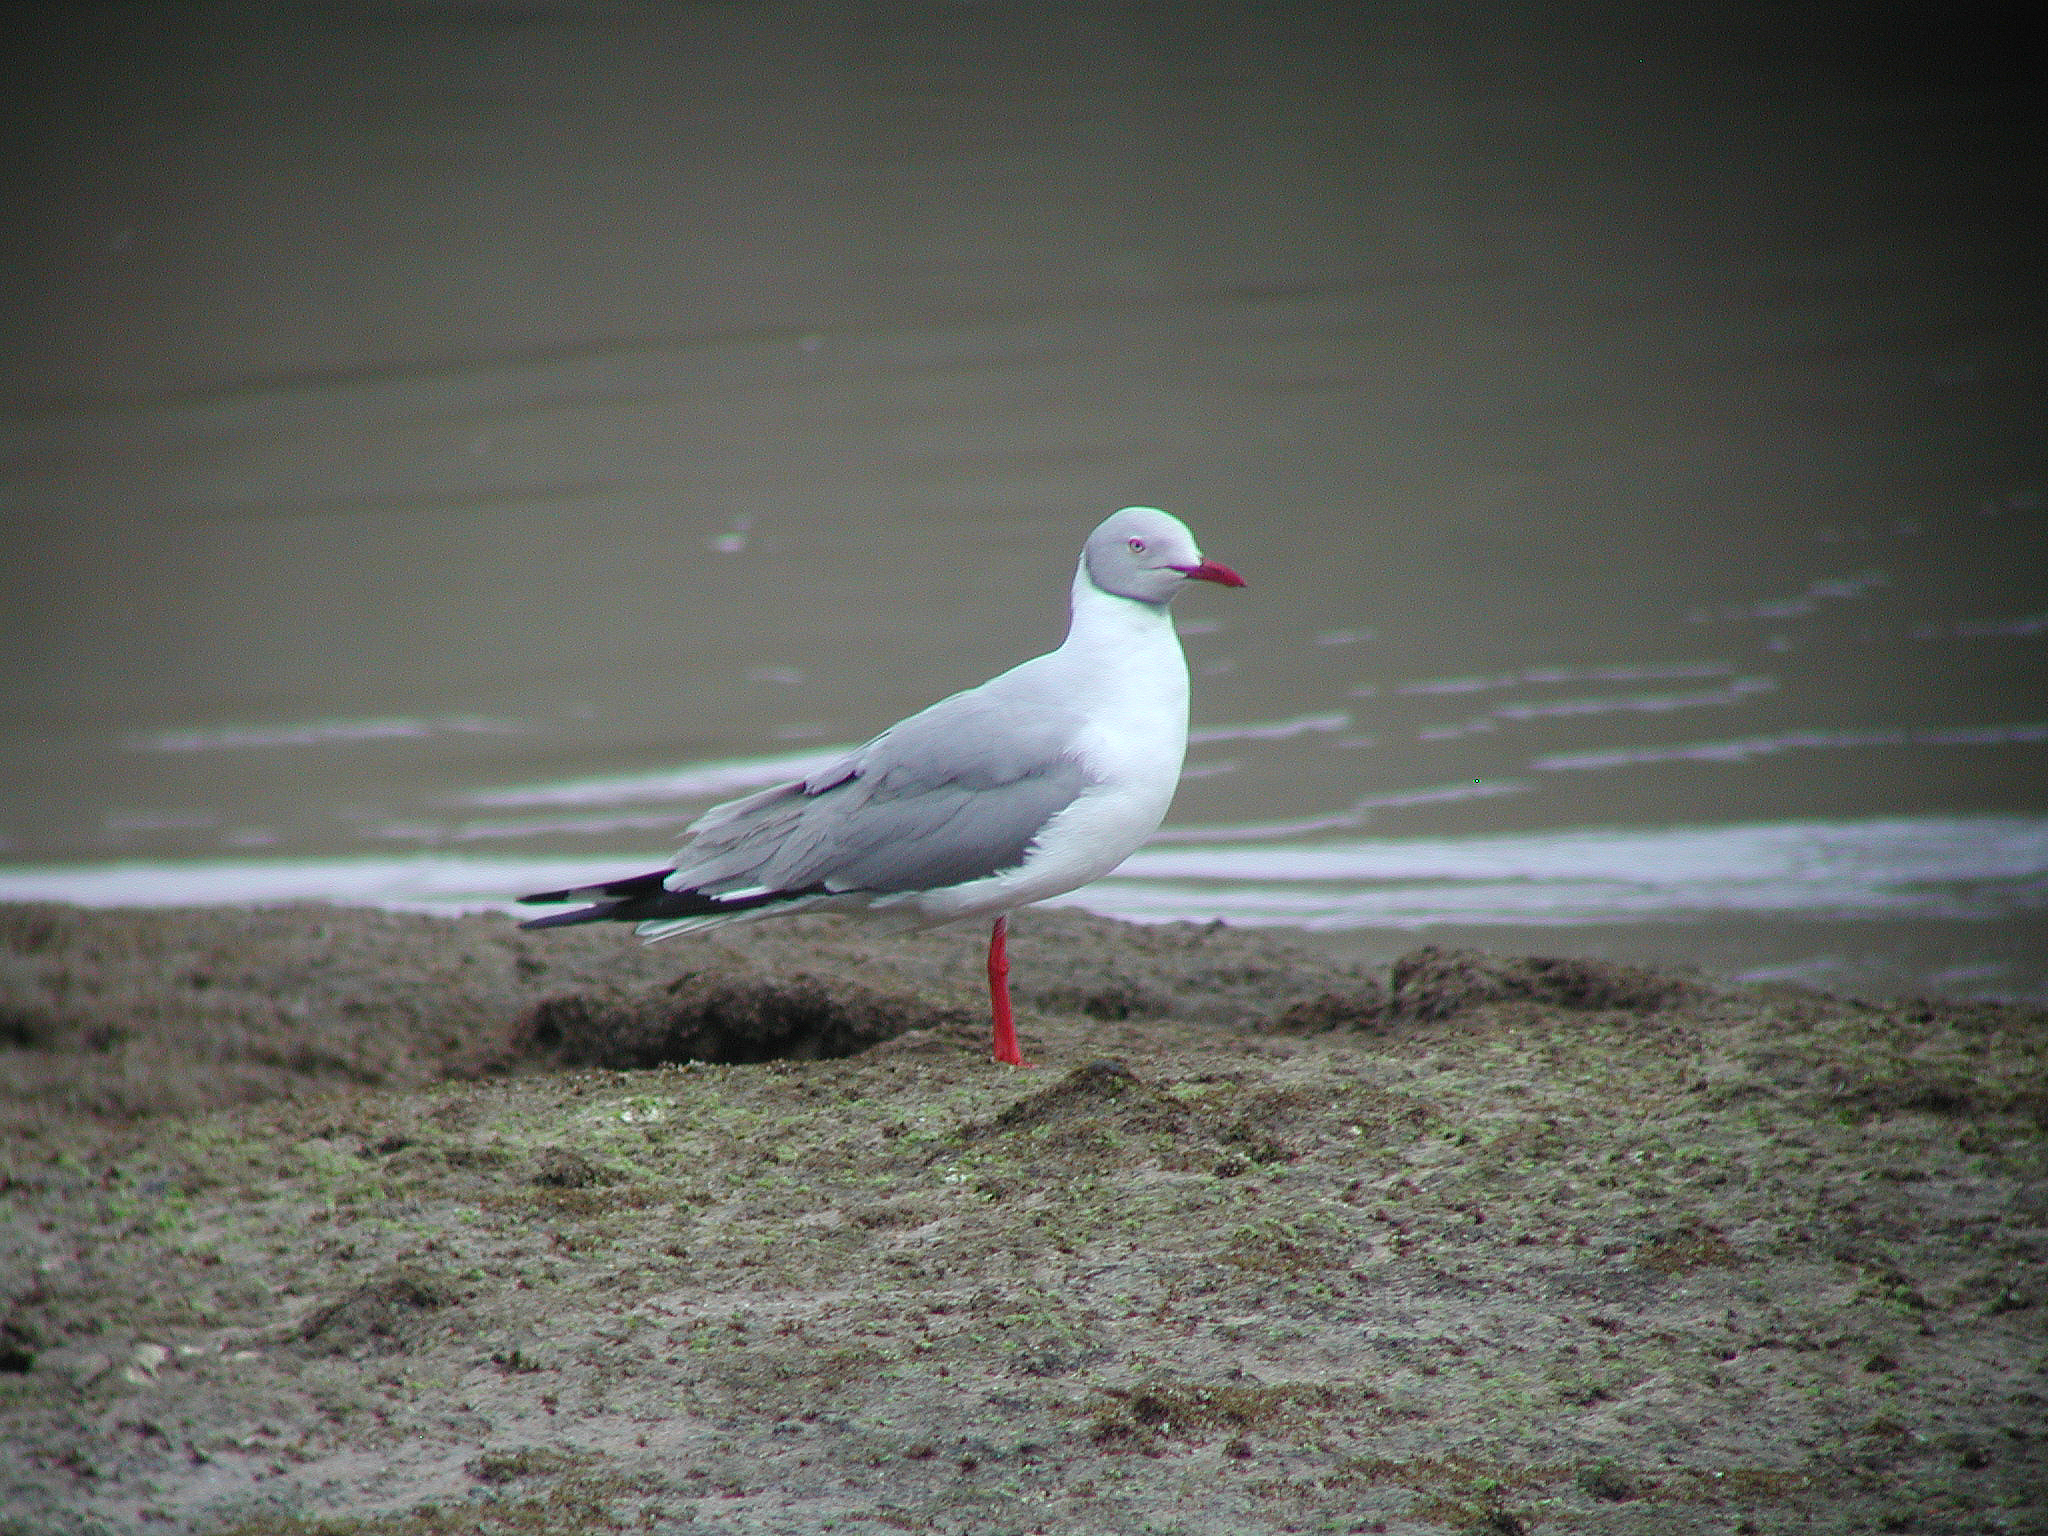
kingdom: Animalia
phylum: Chordata
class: Aves
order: Charadriiformes
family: Laridae
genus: Chroicocephalus
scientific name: Chroicocephalus cirrocephalus
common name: Grey-headed gull
